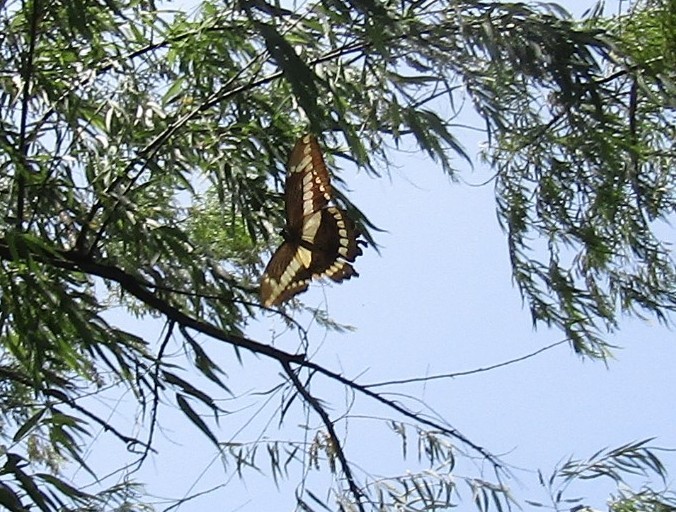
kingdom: Animalia
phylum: Arthropoda
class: Insecta
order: Lepidoptera
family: Papilionidae
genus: Papilio
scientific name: Papilio thoas
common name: King swallowtail
